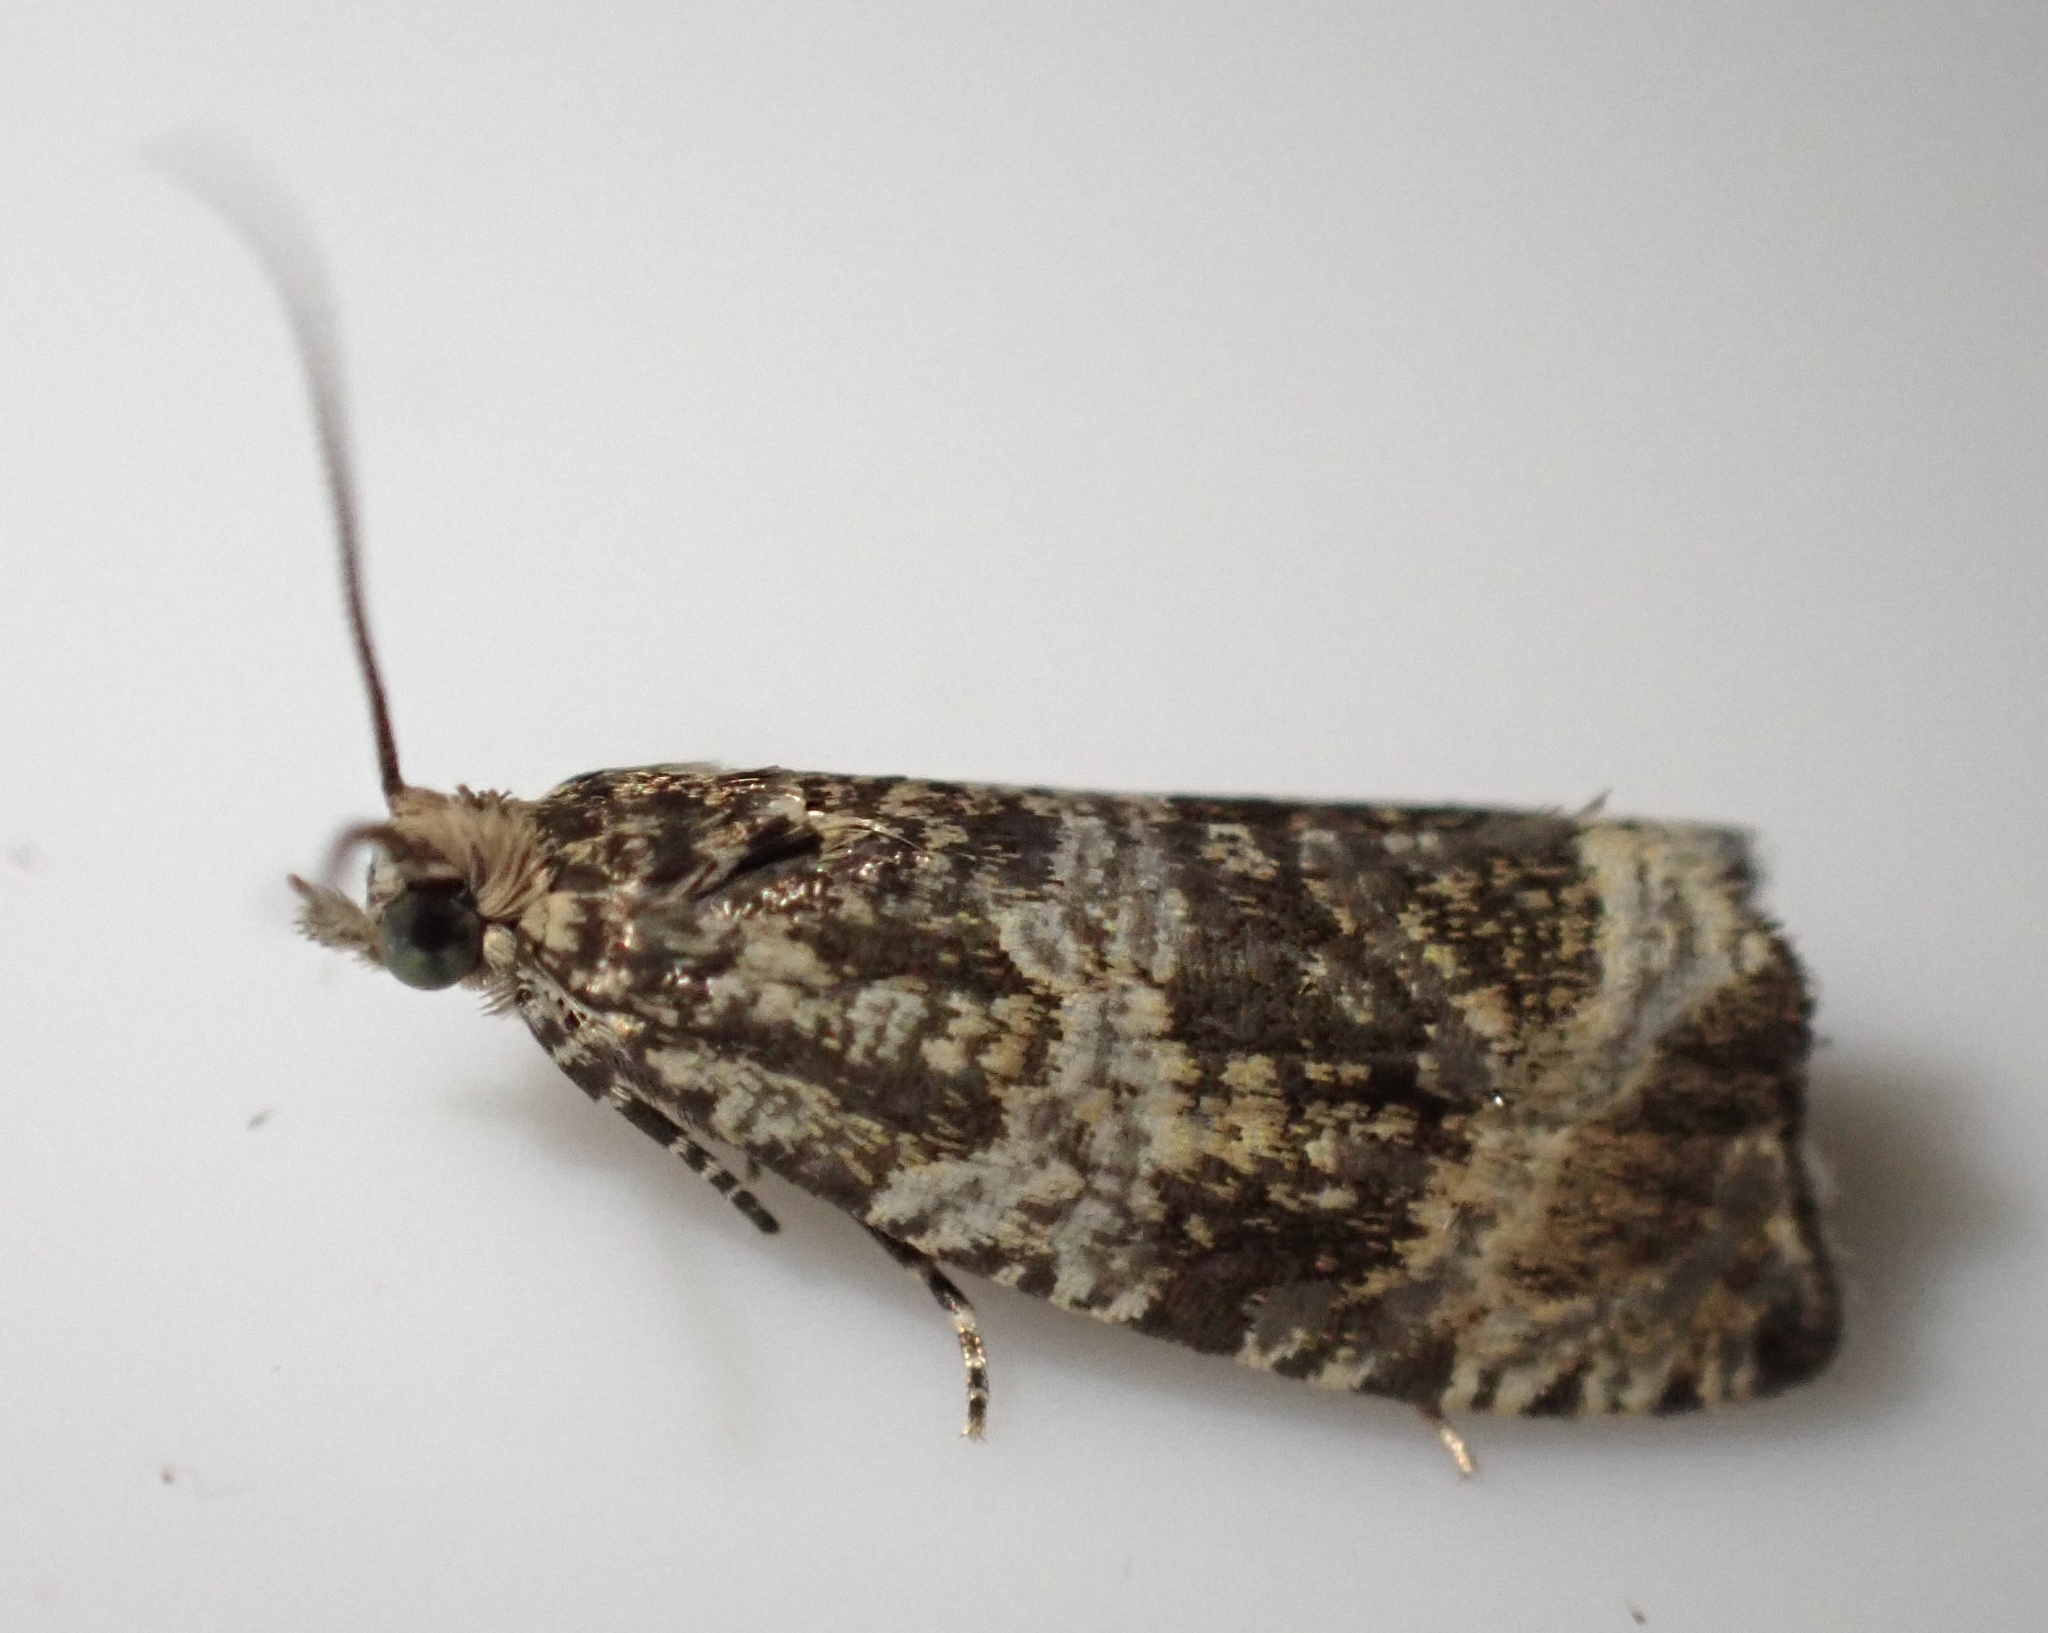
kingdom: Animalia
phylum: Arthropoda
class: Insecta
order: Lepidoptera
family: Tortricidae
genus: Syricoris
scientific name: Syricoris lacunana
